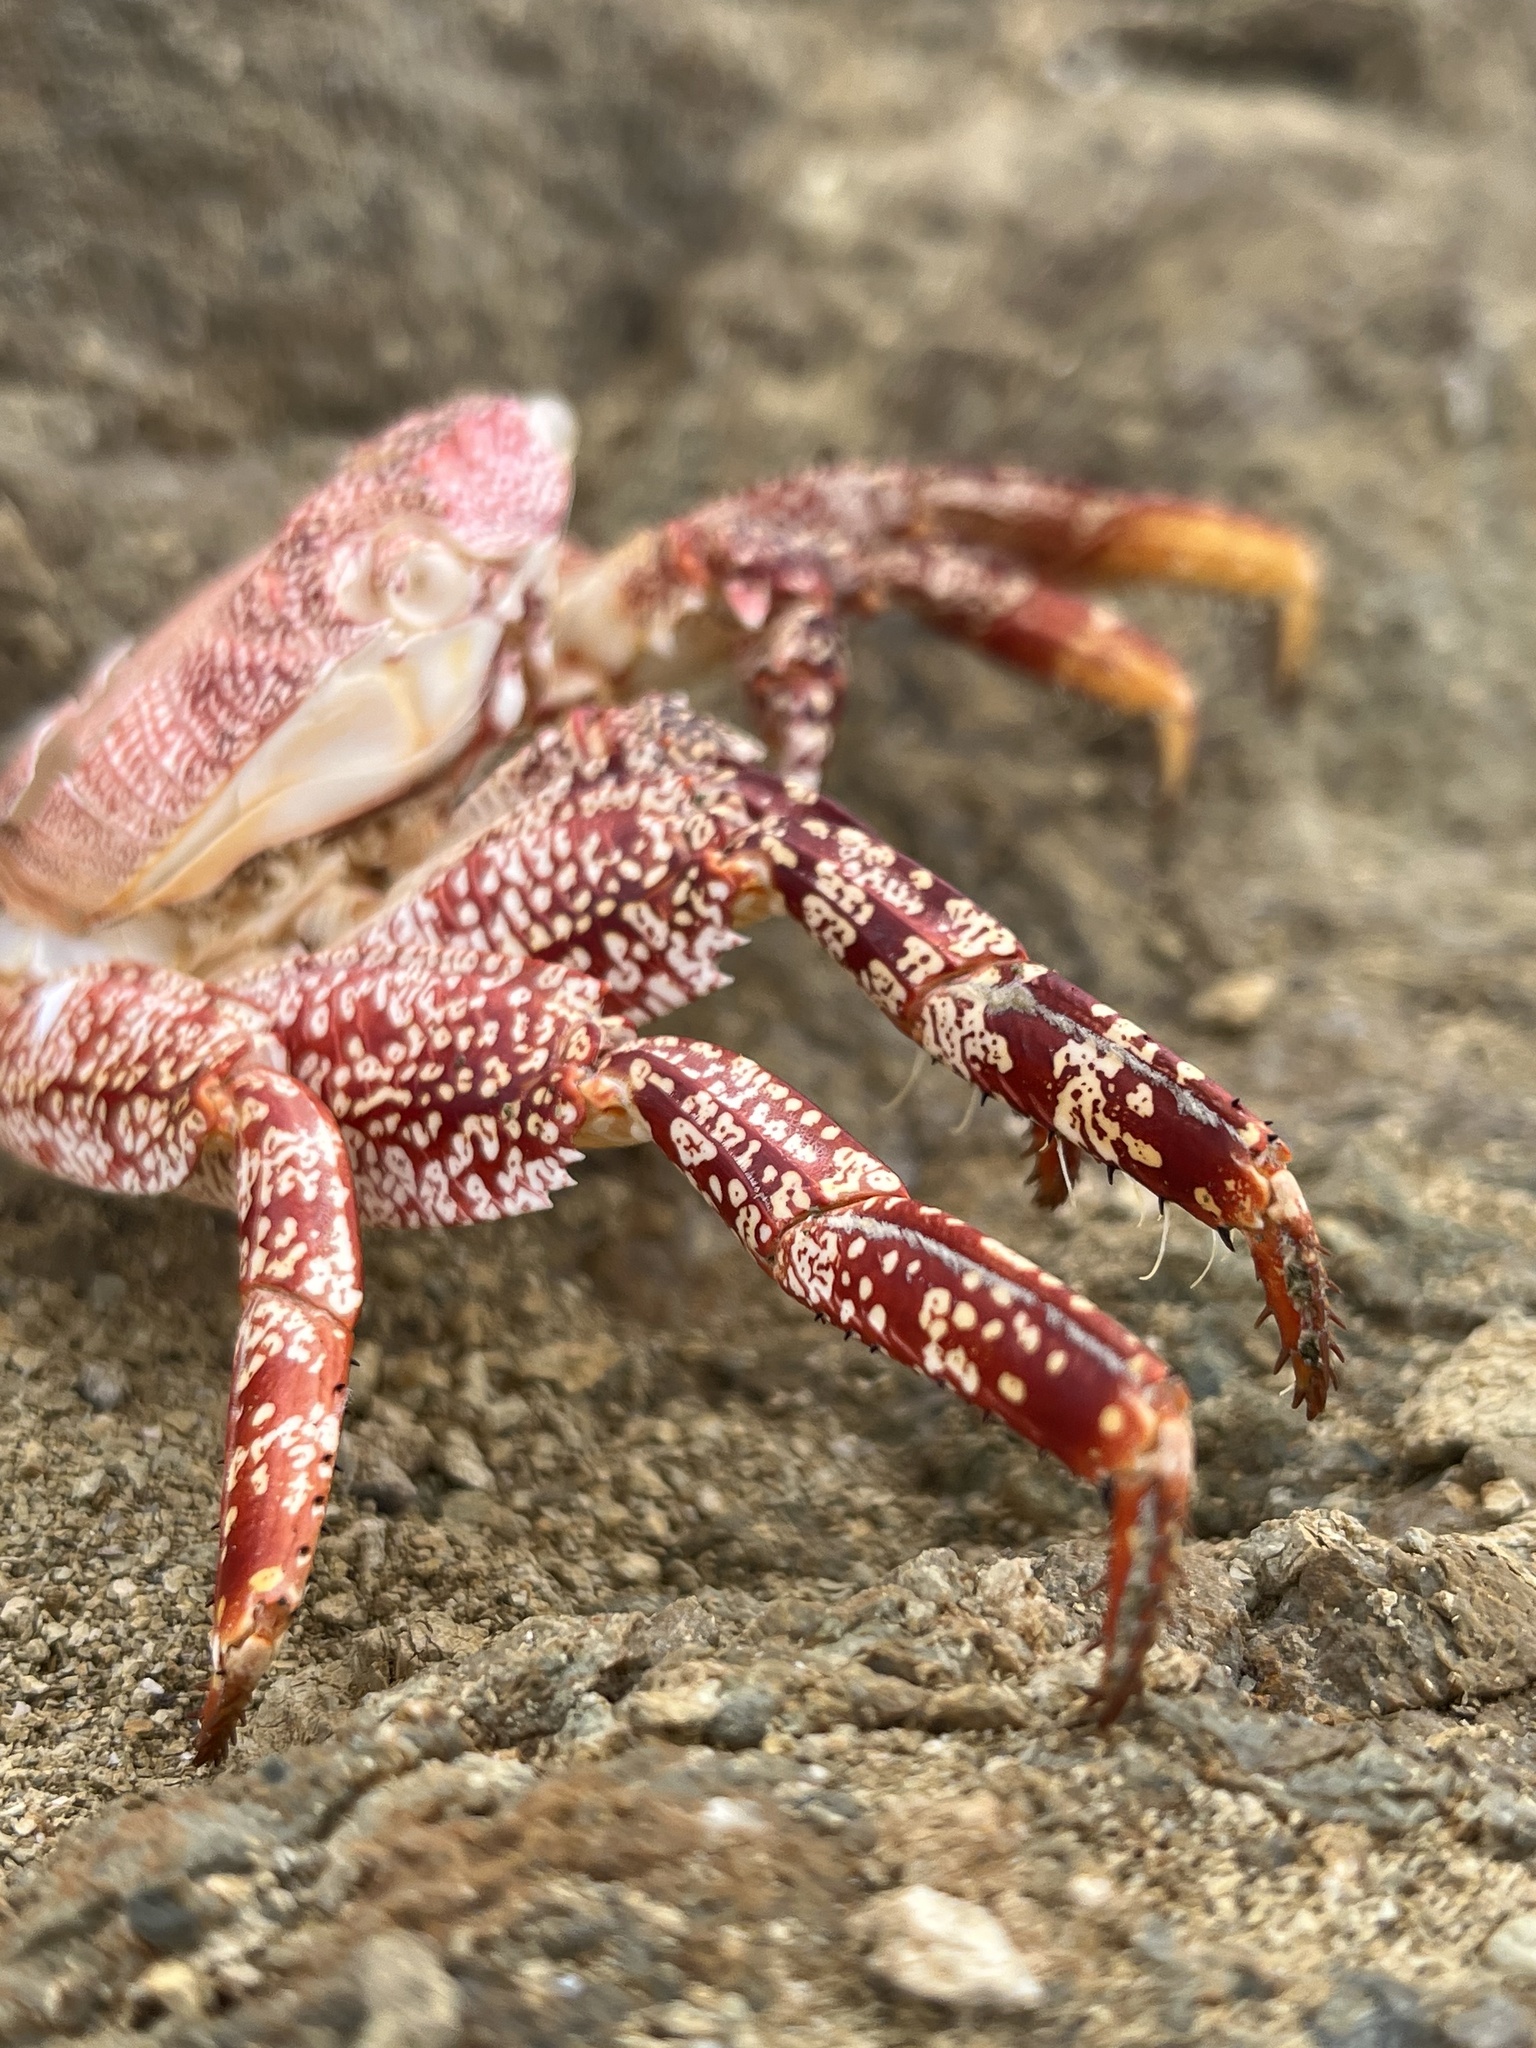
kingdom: Animalia
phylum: Arthropoda
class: Malacostraca
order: Decapoda
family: Grapsidae
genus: Grapsus
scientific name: Grapsus grapsus
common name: Sally lightfoot
